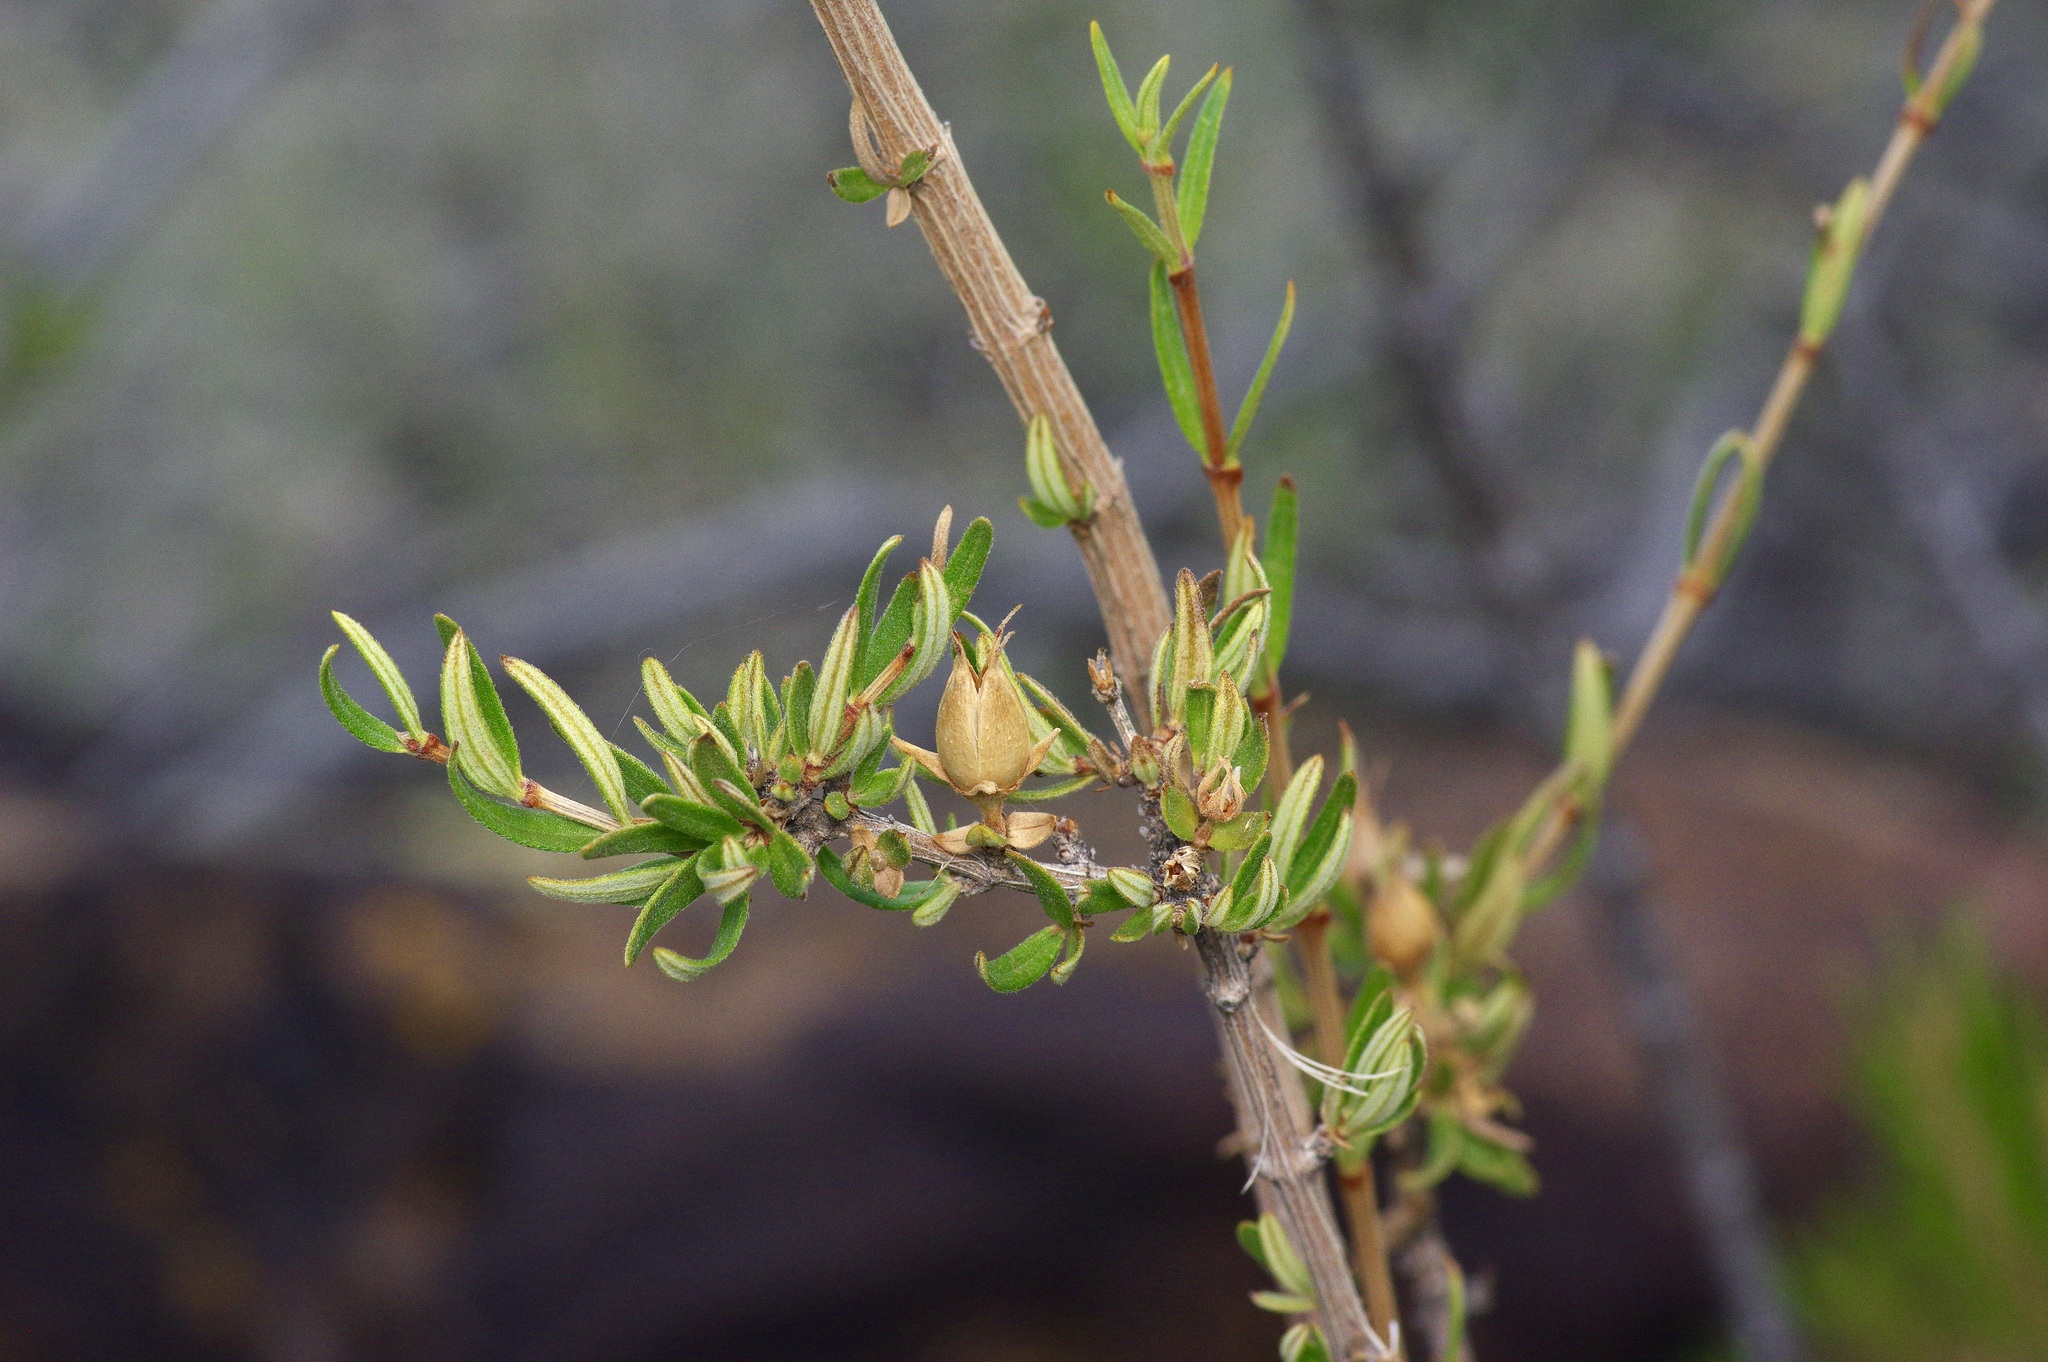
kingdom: Plantae
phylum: Tracheophyta
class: Magnoliopsida
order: Cornales
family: Hydrangeaceae
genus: Fendlera
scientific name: Fendlera rupicola
